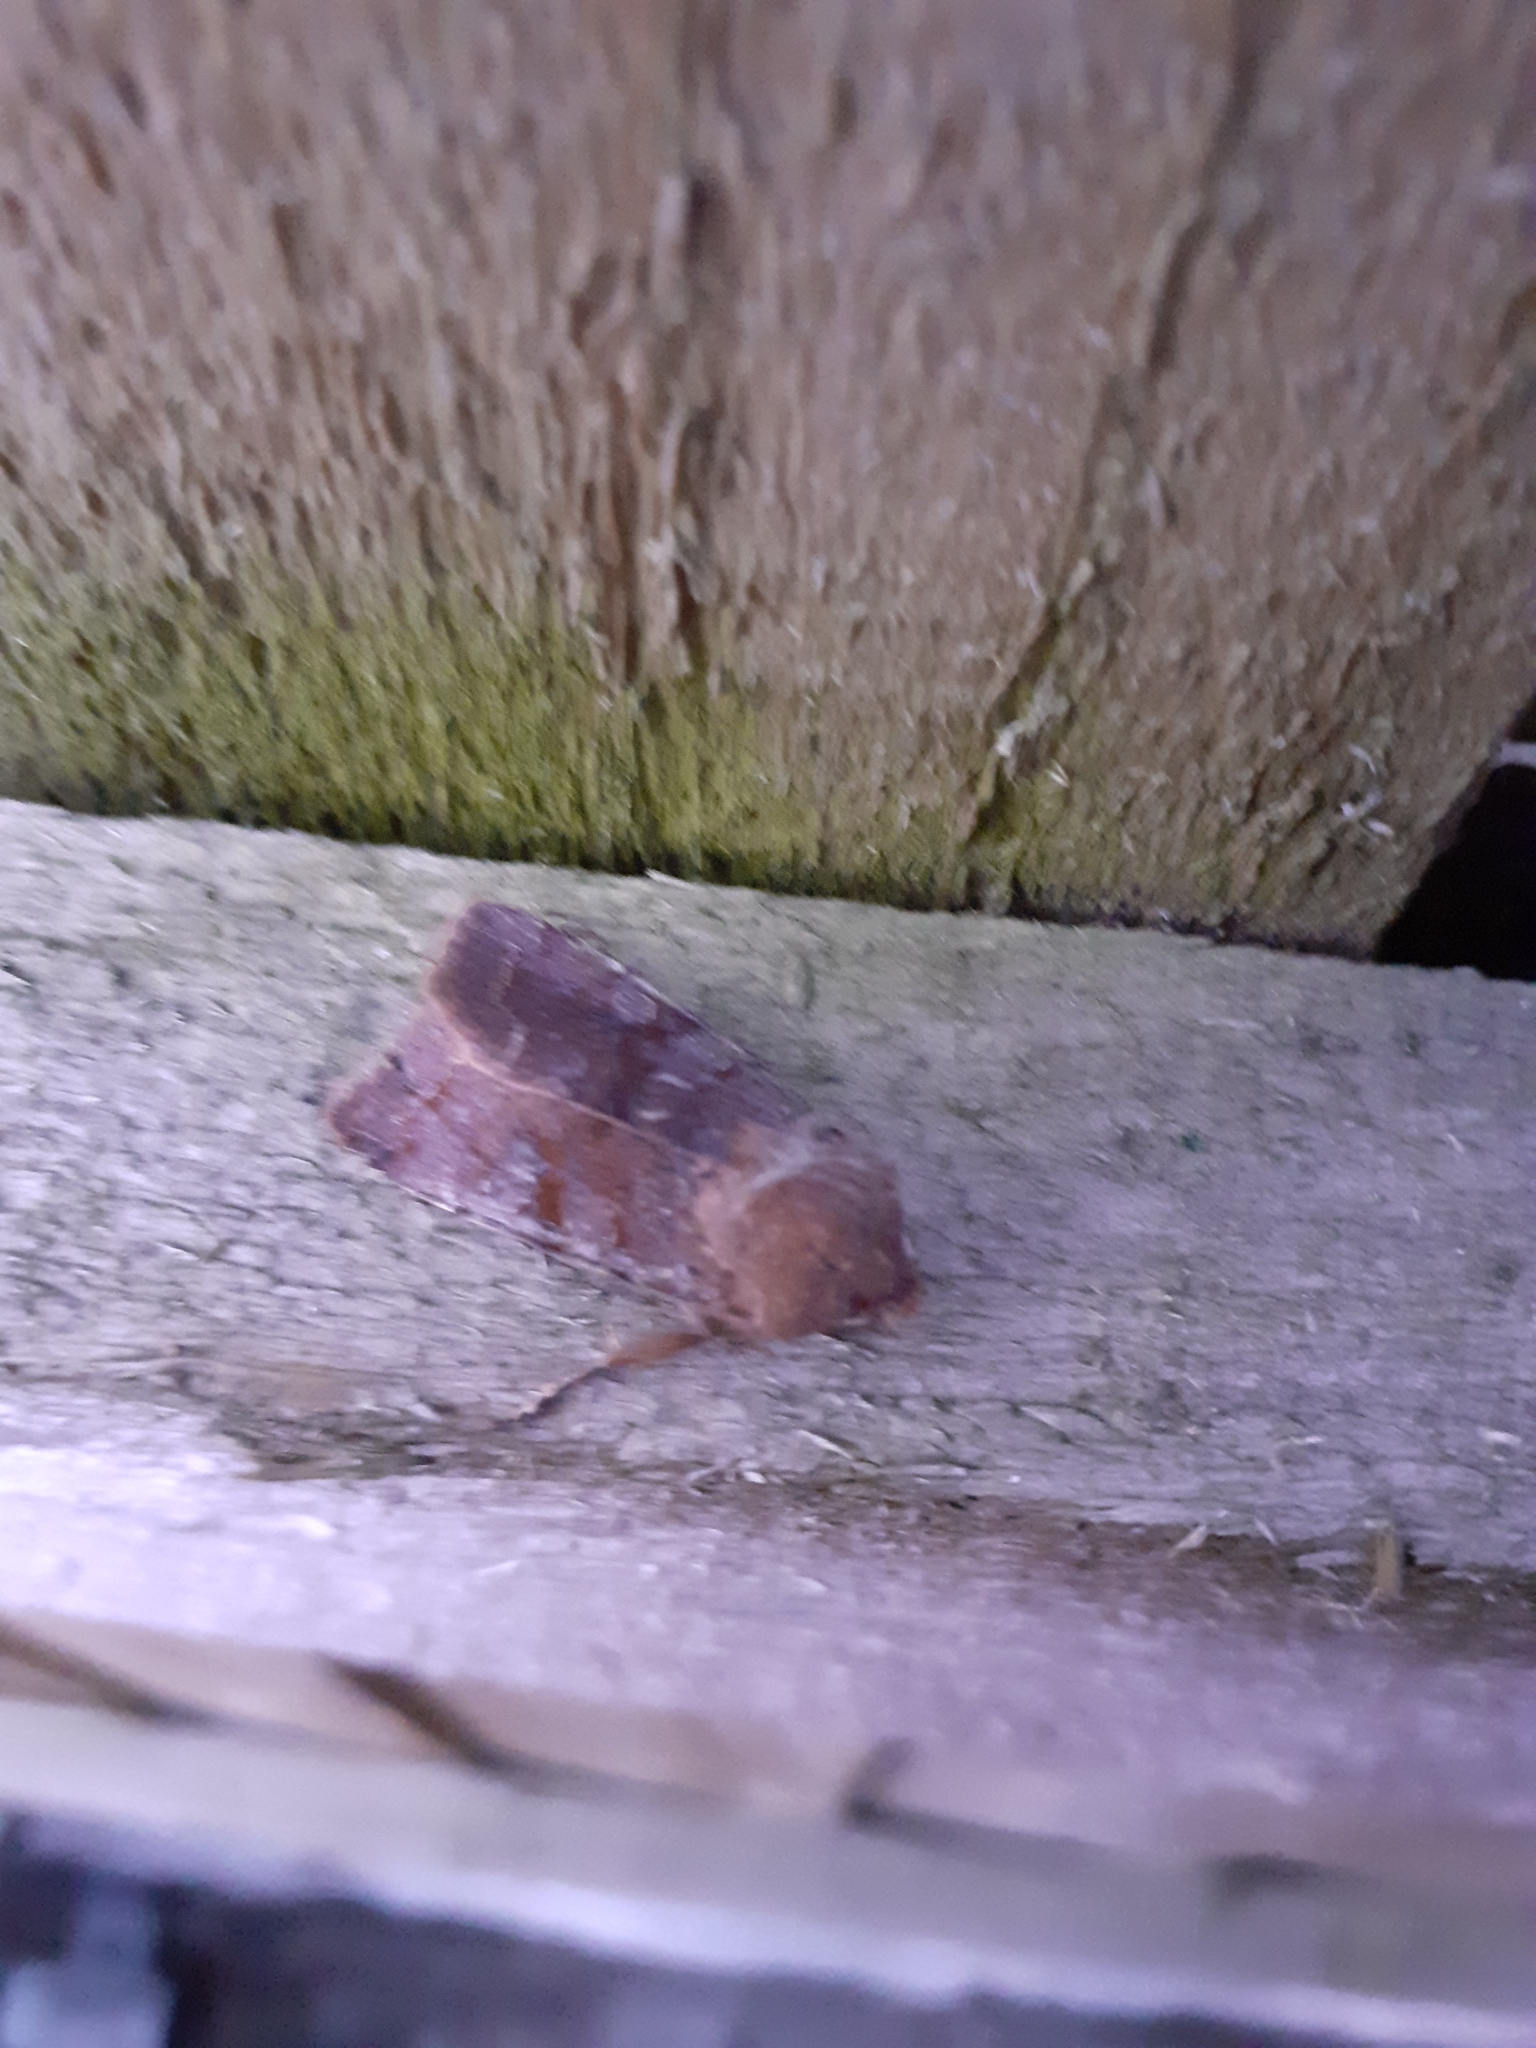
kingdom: Animalia
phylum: Arthropoda
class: Insecta
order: Lepidoptera
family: Noctuidae
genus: Orthosia
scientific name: Orthosia incerta
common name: Clouded drab
